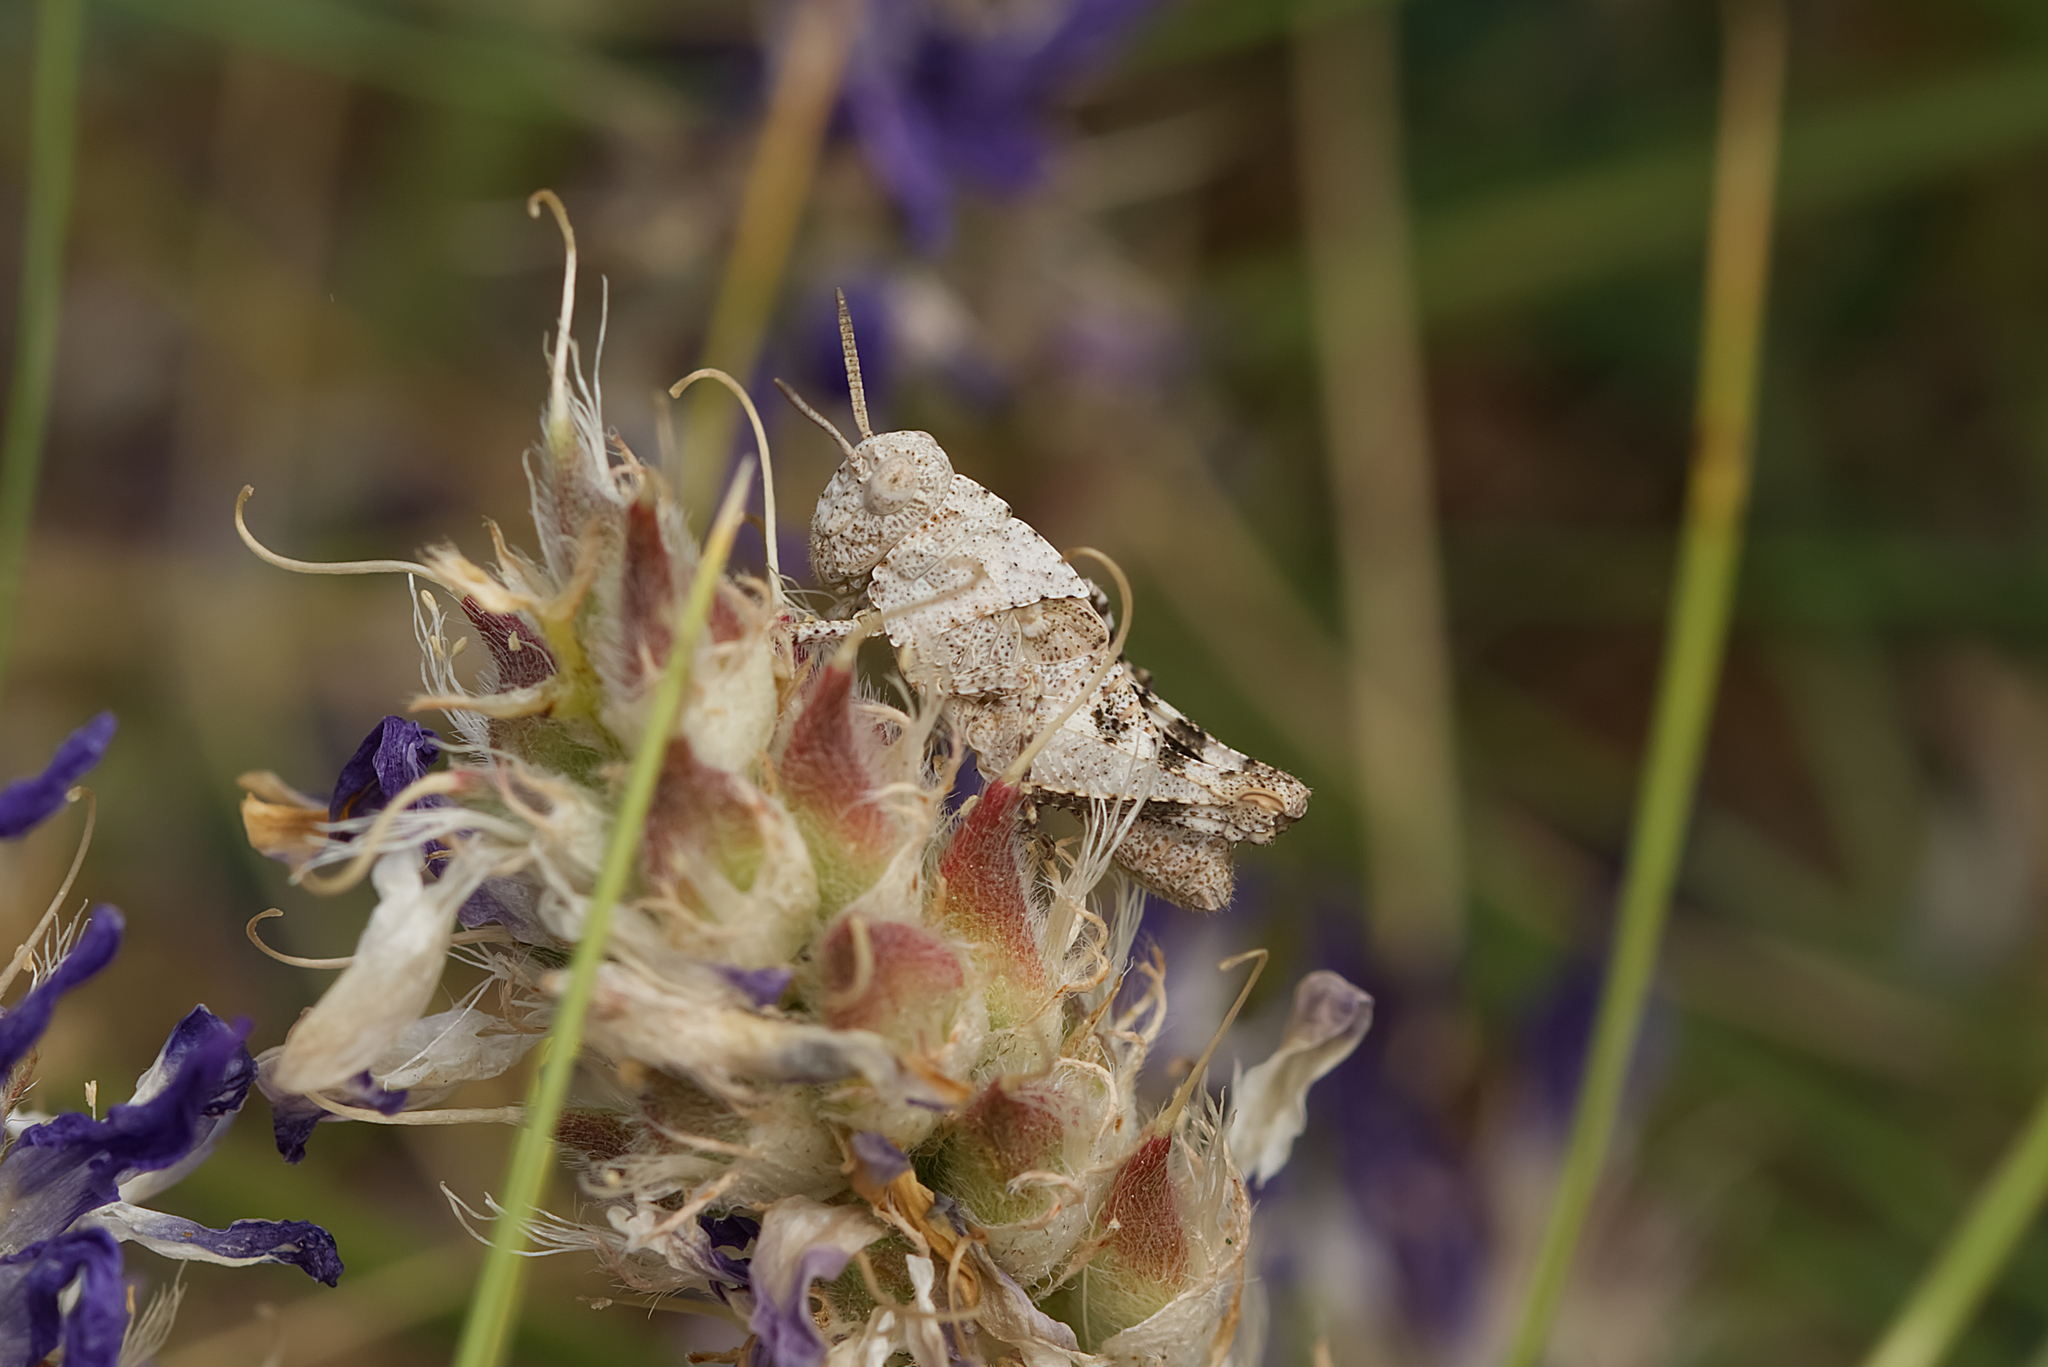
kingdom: Animalia
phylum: Arthropoda
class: Insecta
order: Orthoptera
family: Acrididae
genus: Oedipoda
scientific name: Oedipoda caerulescens
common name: Blue-winged grasshopper
